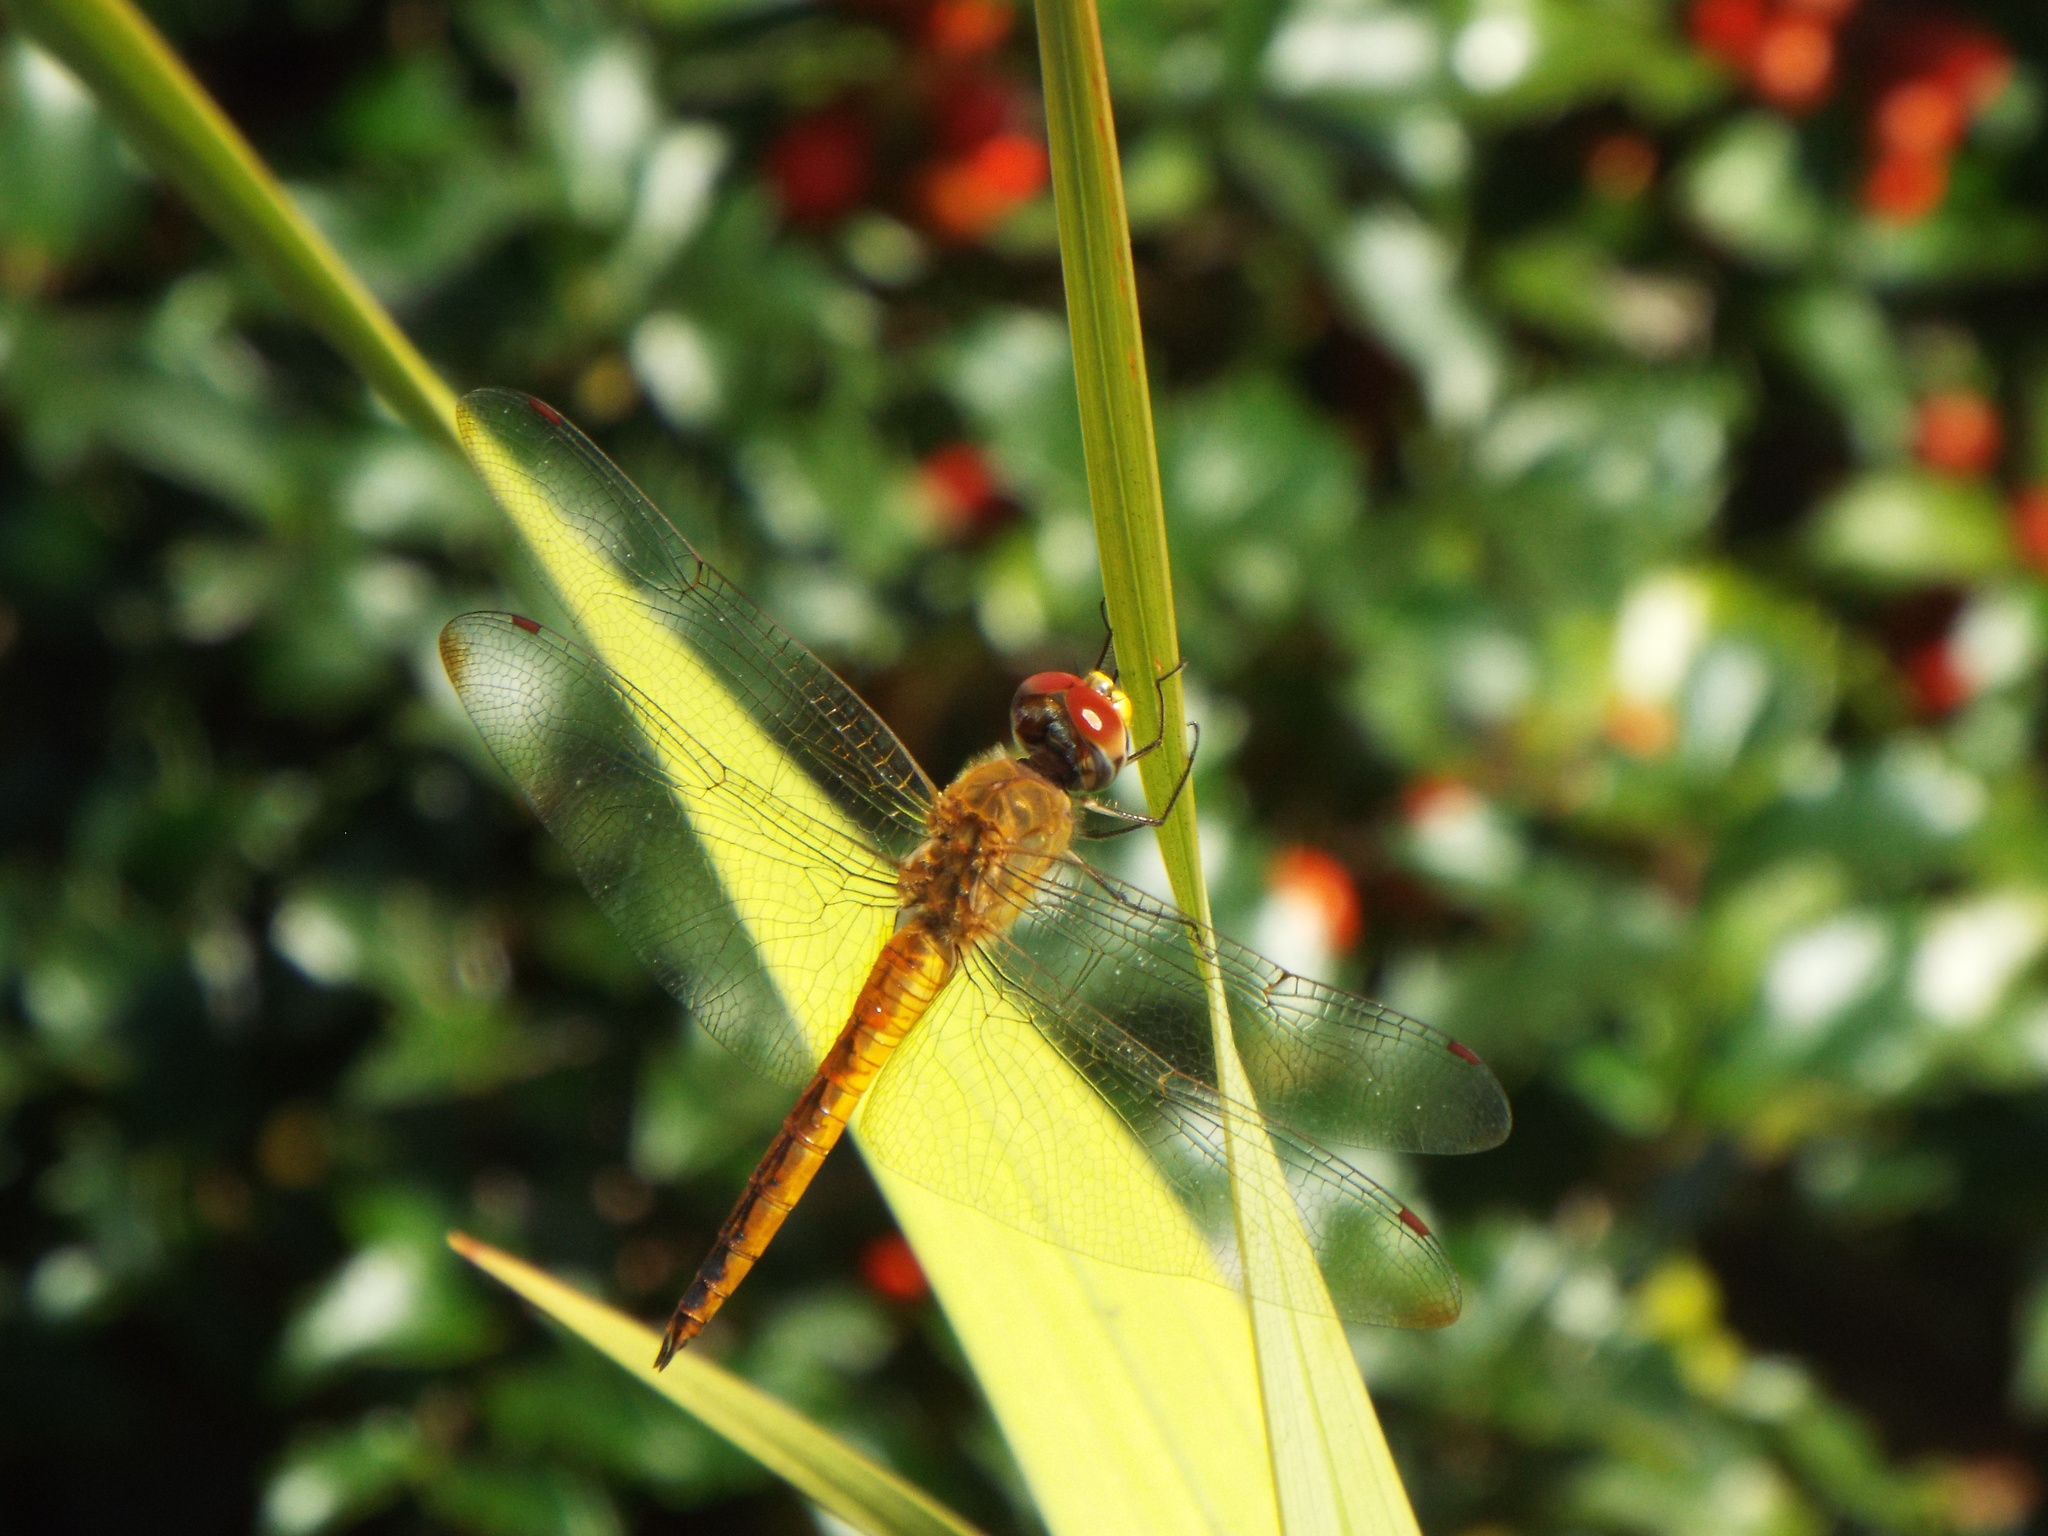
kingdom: Animalia
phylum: Arthropoda
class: Insecta
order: Odonata
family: Libellulidae
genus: Pantala
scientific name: Pantala flavescens
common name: Wandering glider
